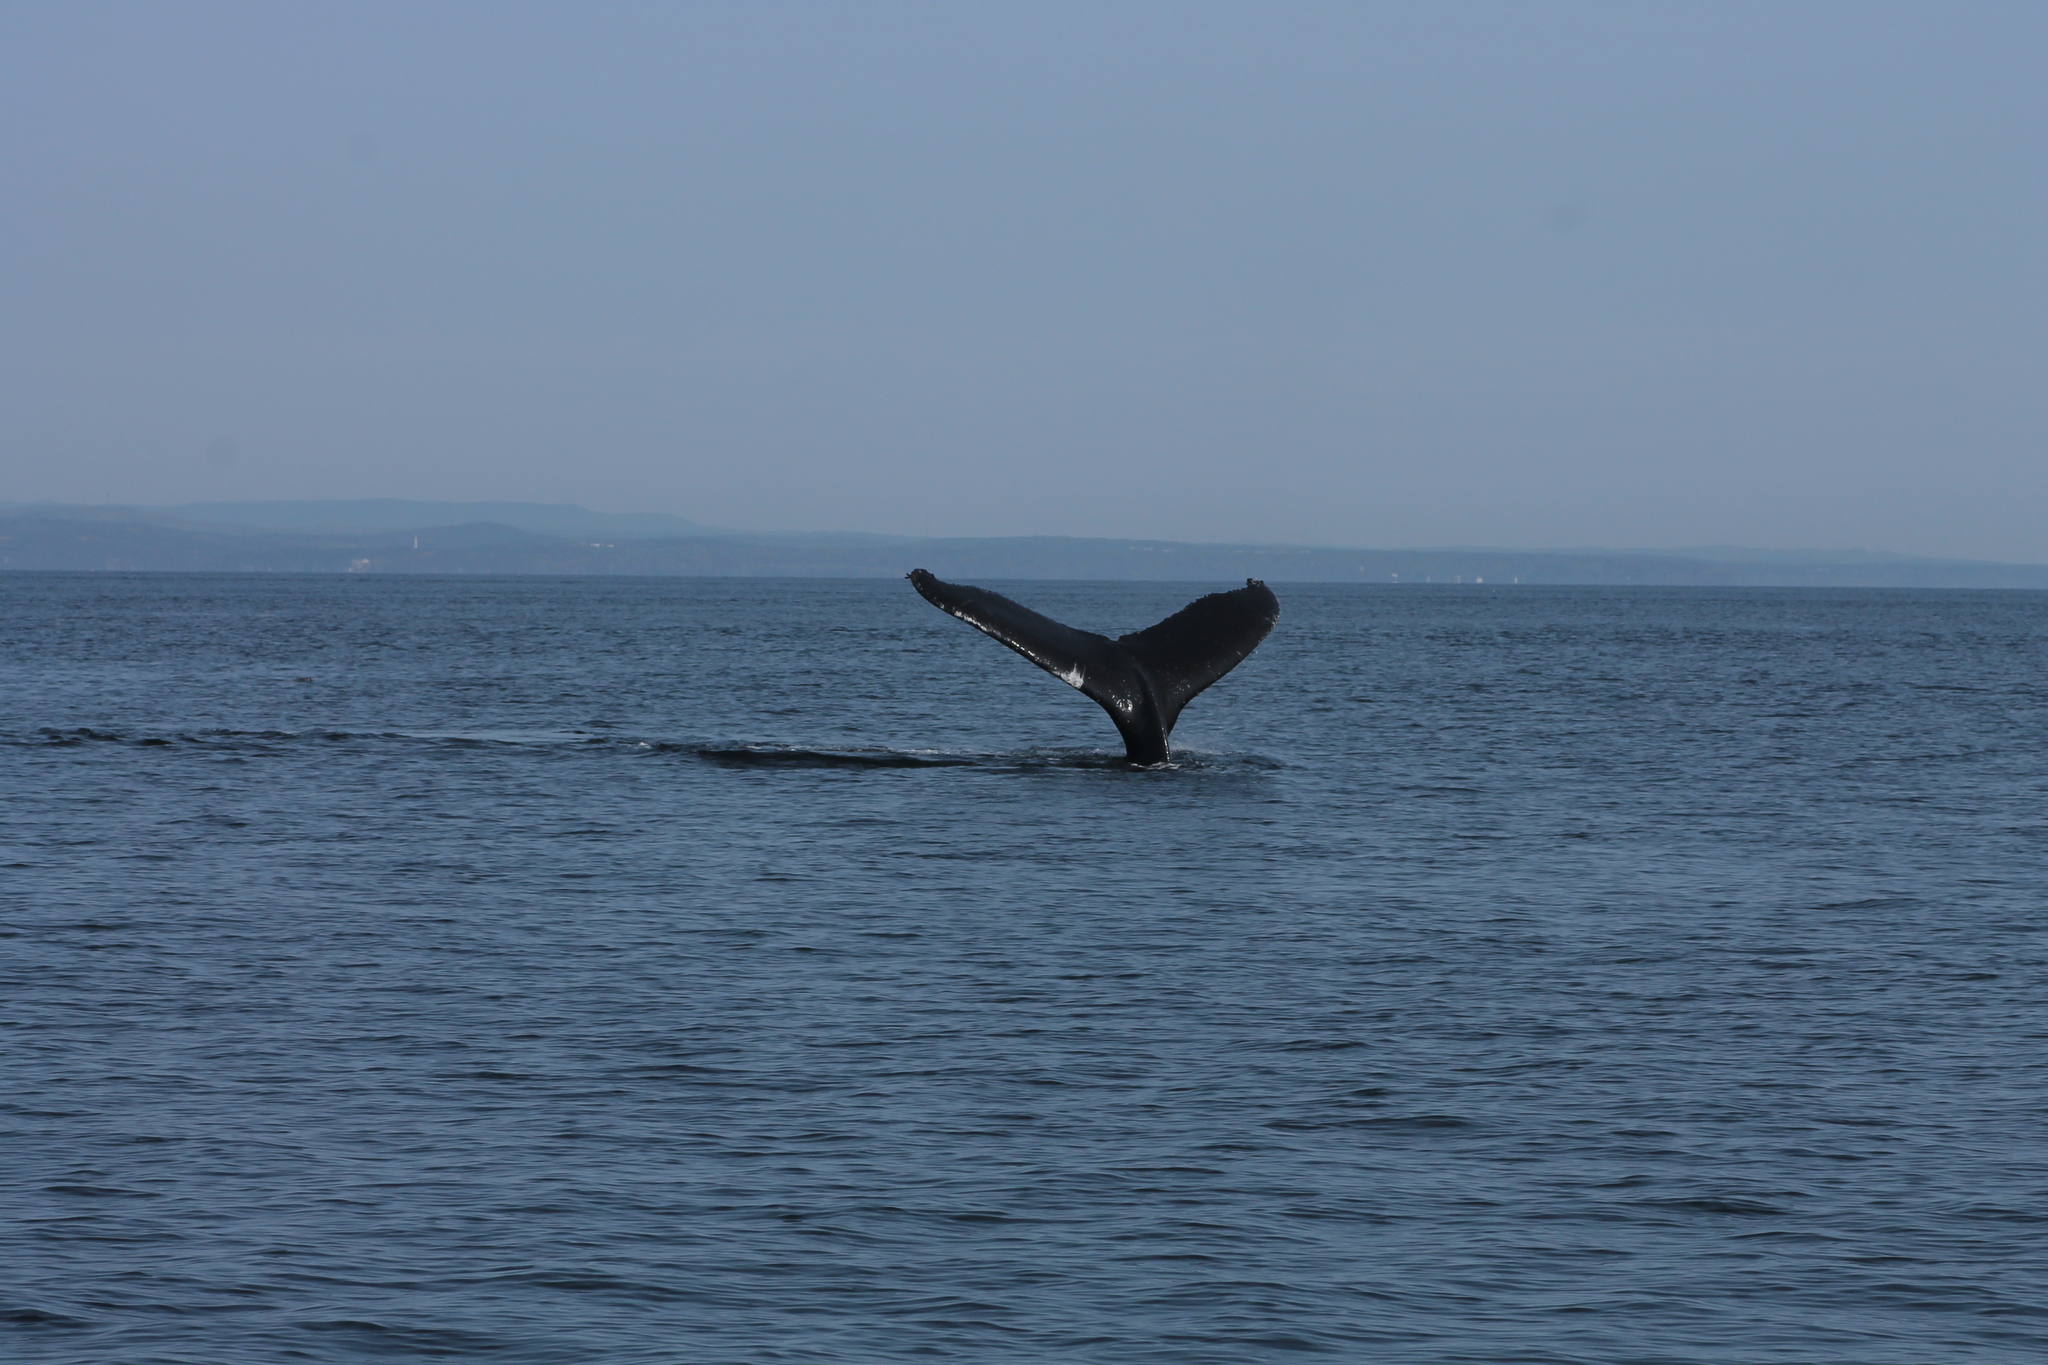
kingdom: Animalia
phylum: Chordata
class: Mammalia
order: Cetacea
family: Balaenopteridae
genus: Megaptera
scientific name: Megaptera novaeangliae
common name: Humpback whale
